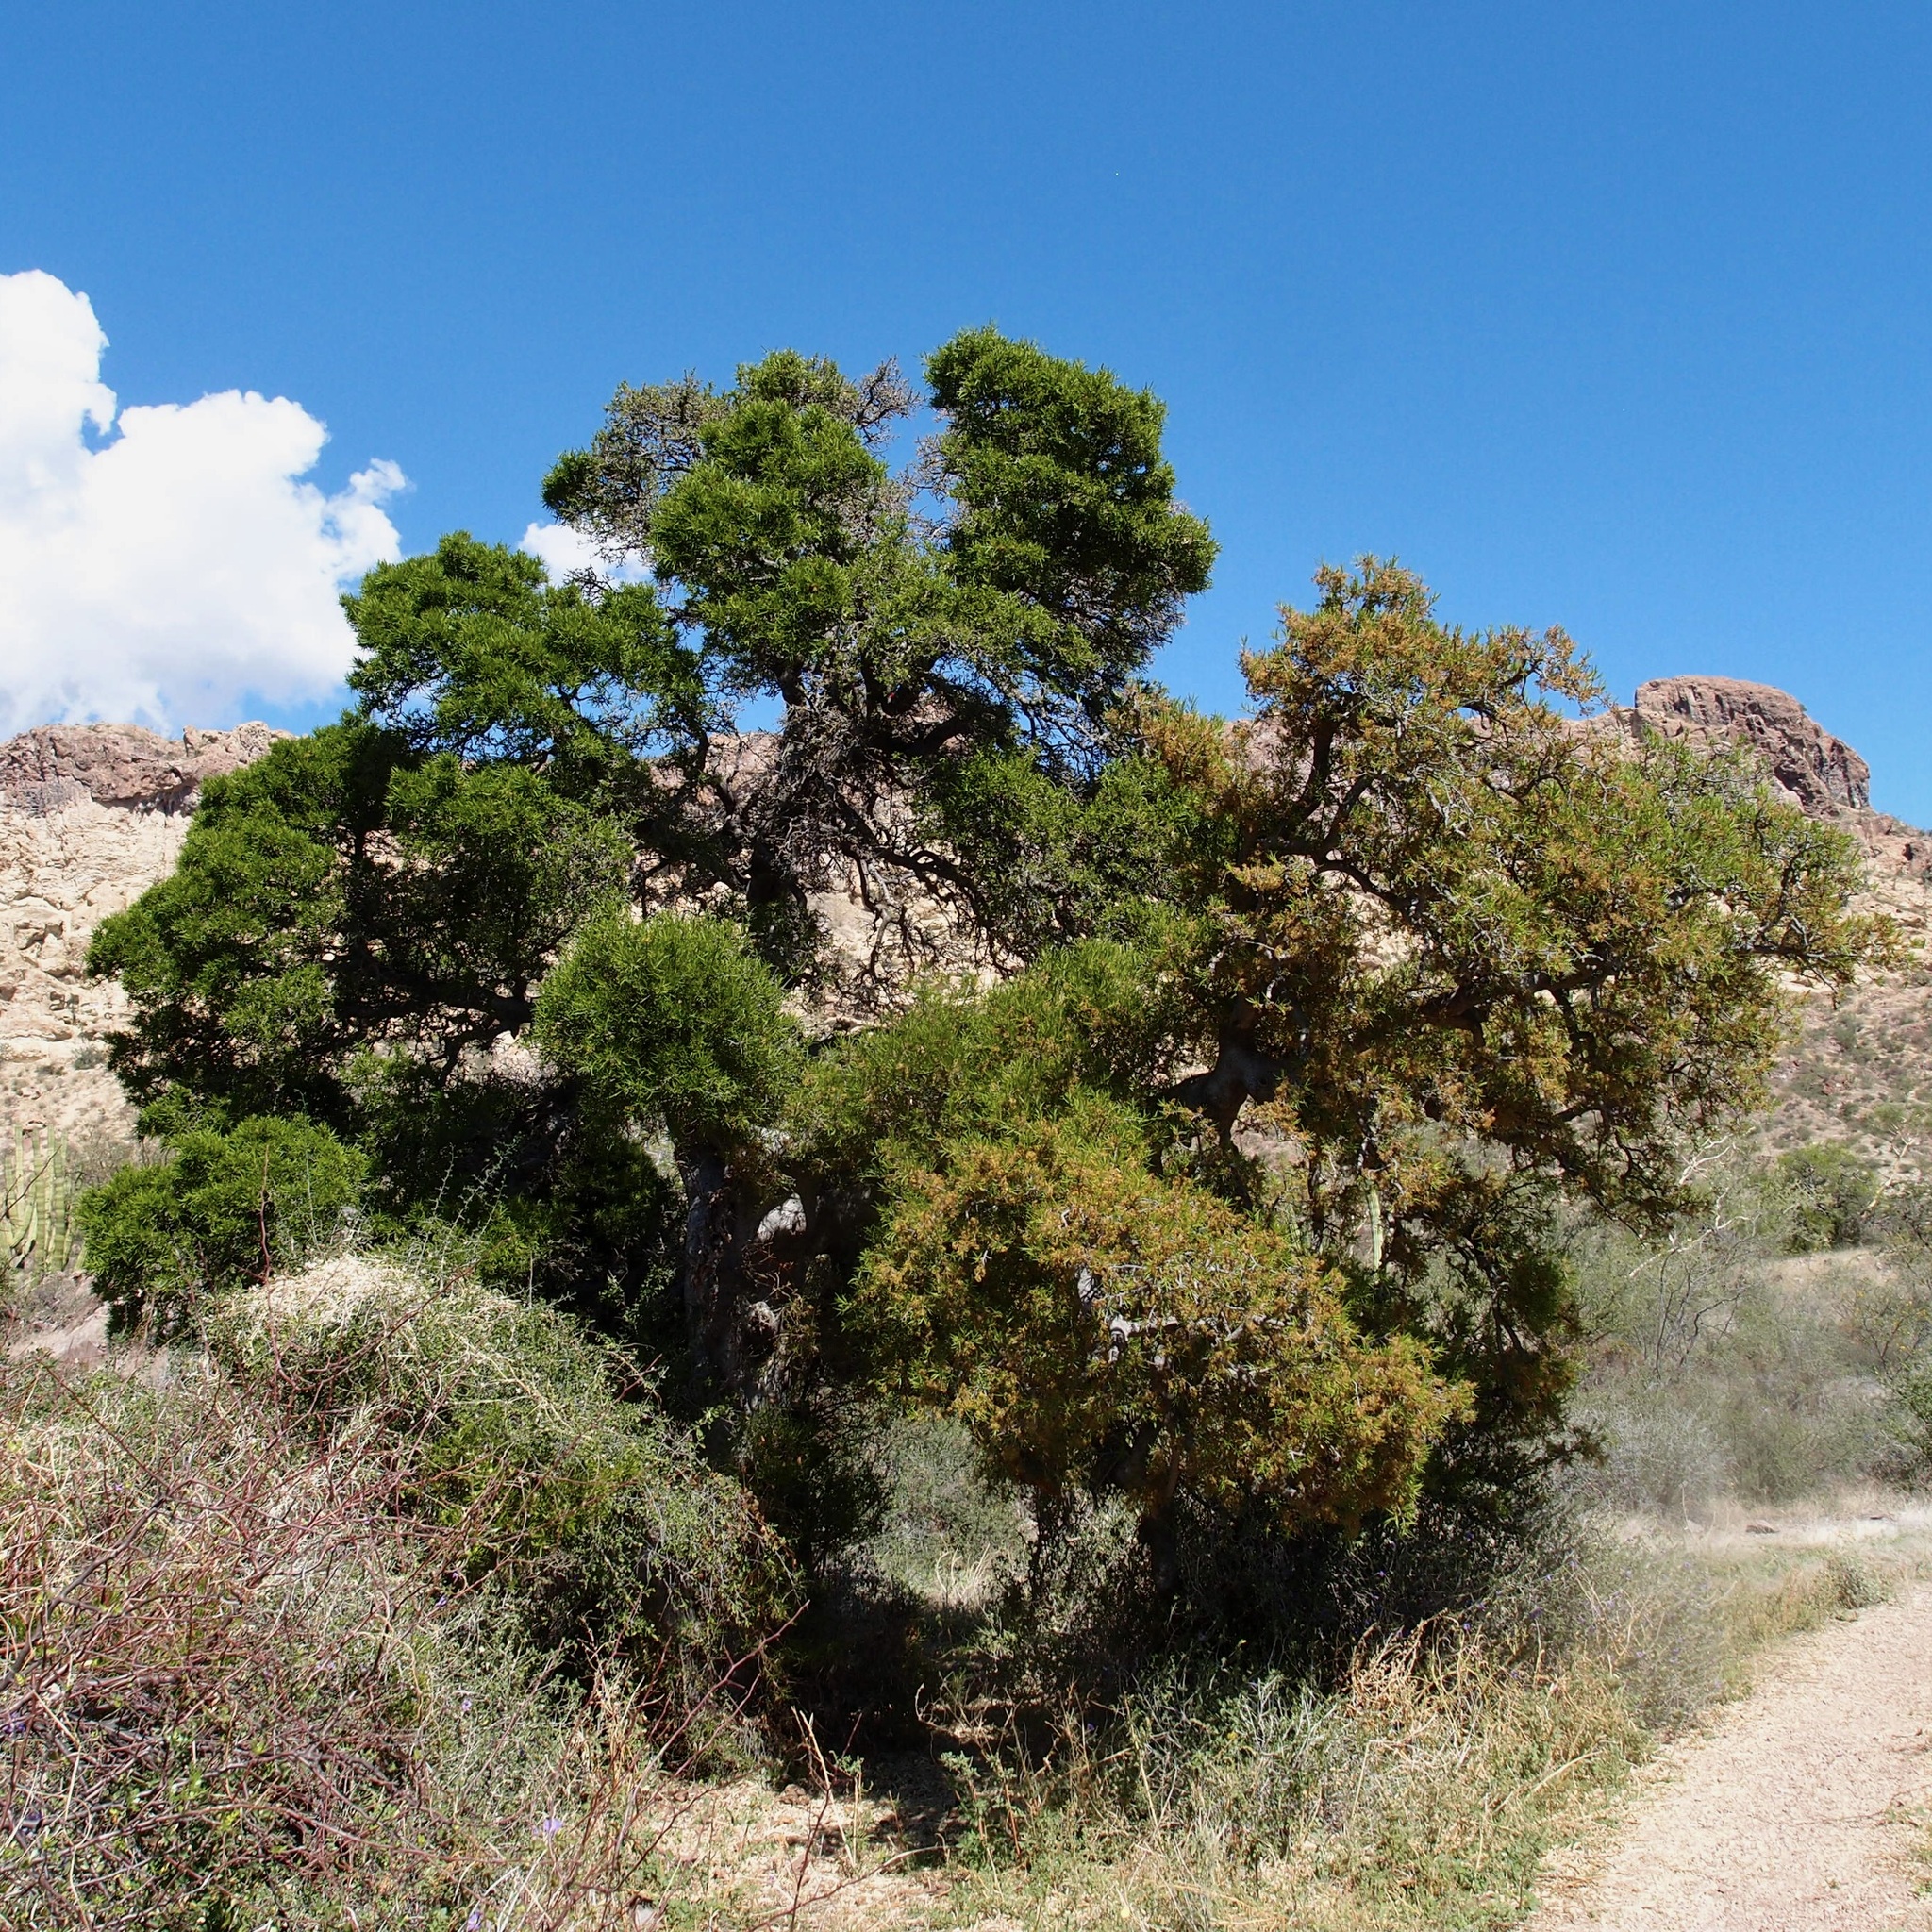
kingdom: Plantae
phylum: Tracheophyta
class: Magnoliopsida
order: Brassicales
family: Stixaceae
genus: Forchhammeria
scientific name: Forchhammeria watsonii
